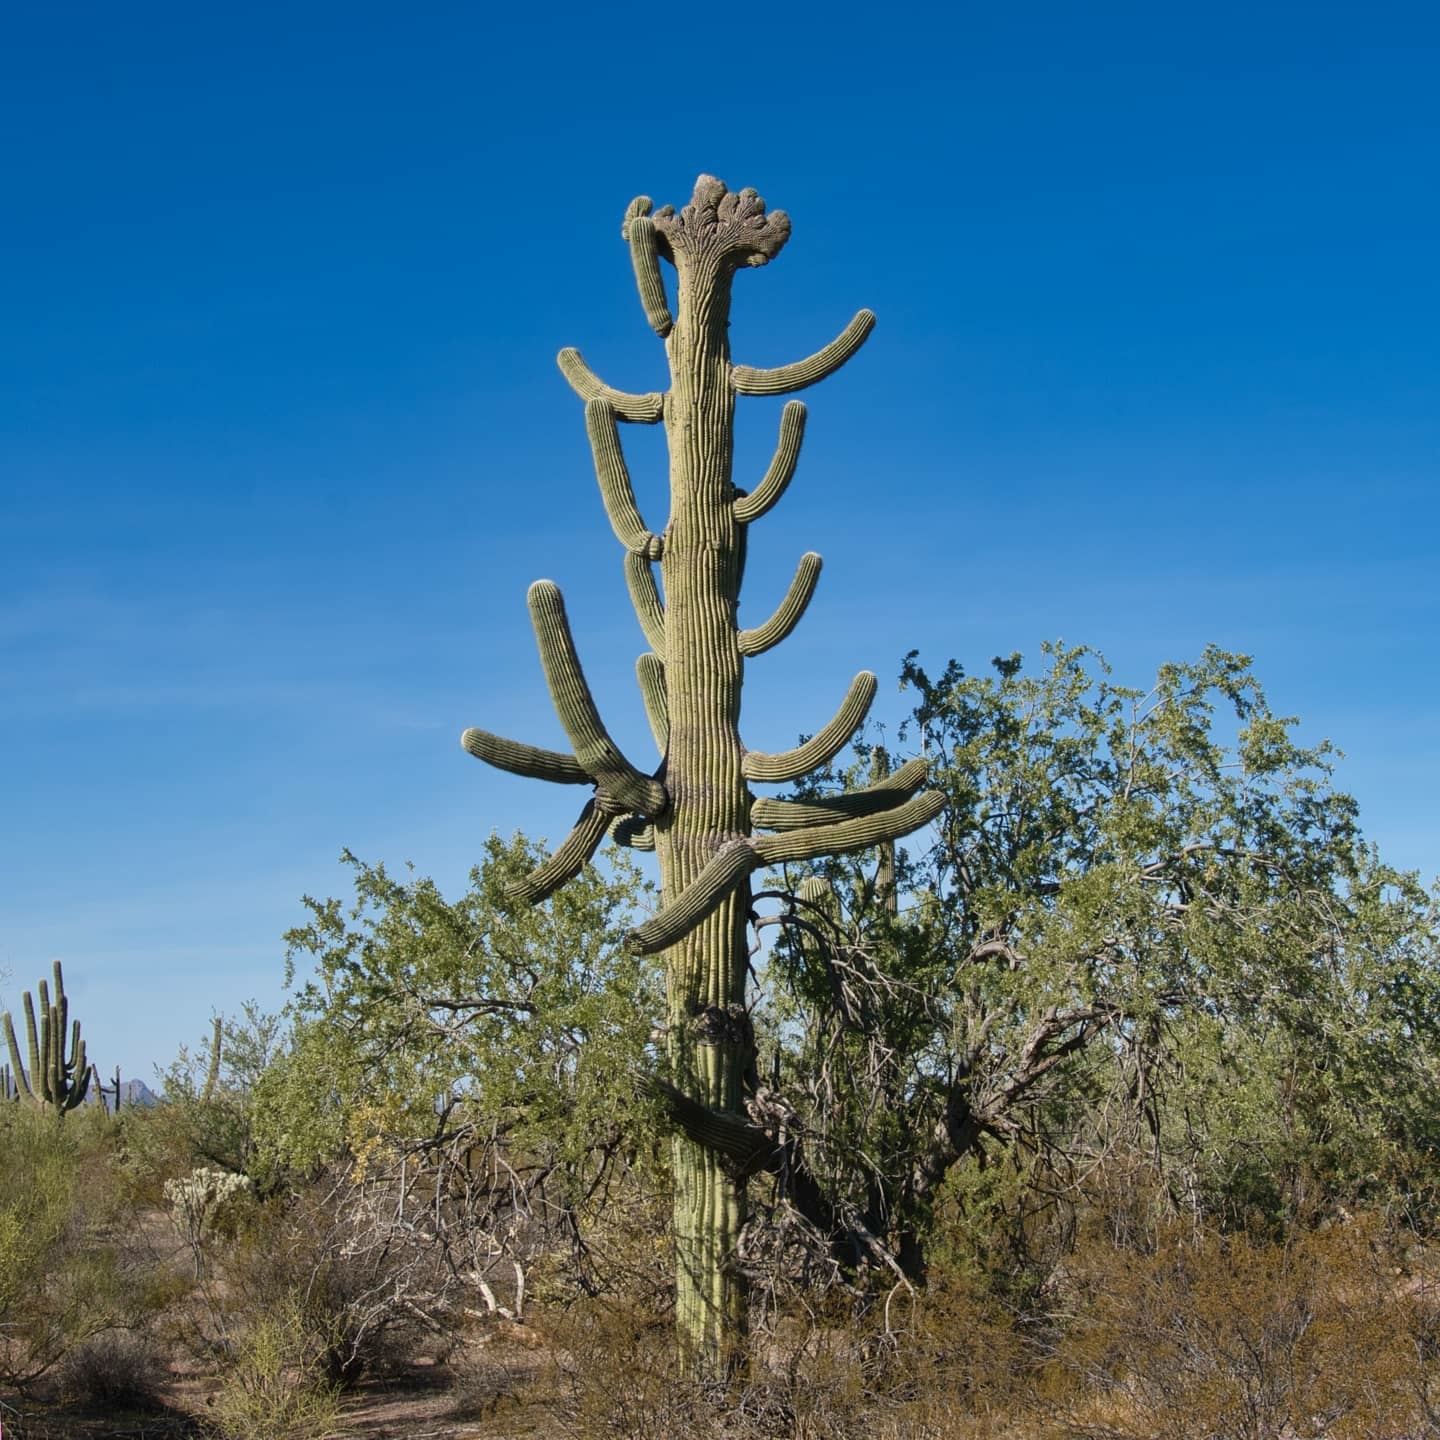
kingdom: Plantae
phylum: Tracheophyta
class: Magnoliopsida
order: Caryophyllales
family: Cactaceae
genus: Carnegiea
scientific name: Carnegiea gigantea
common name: Saguaro
